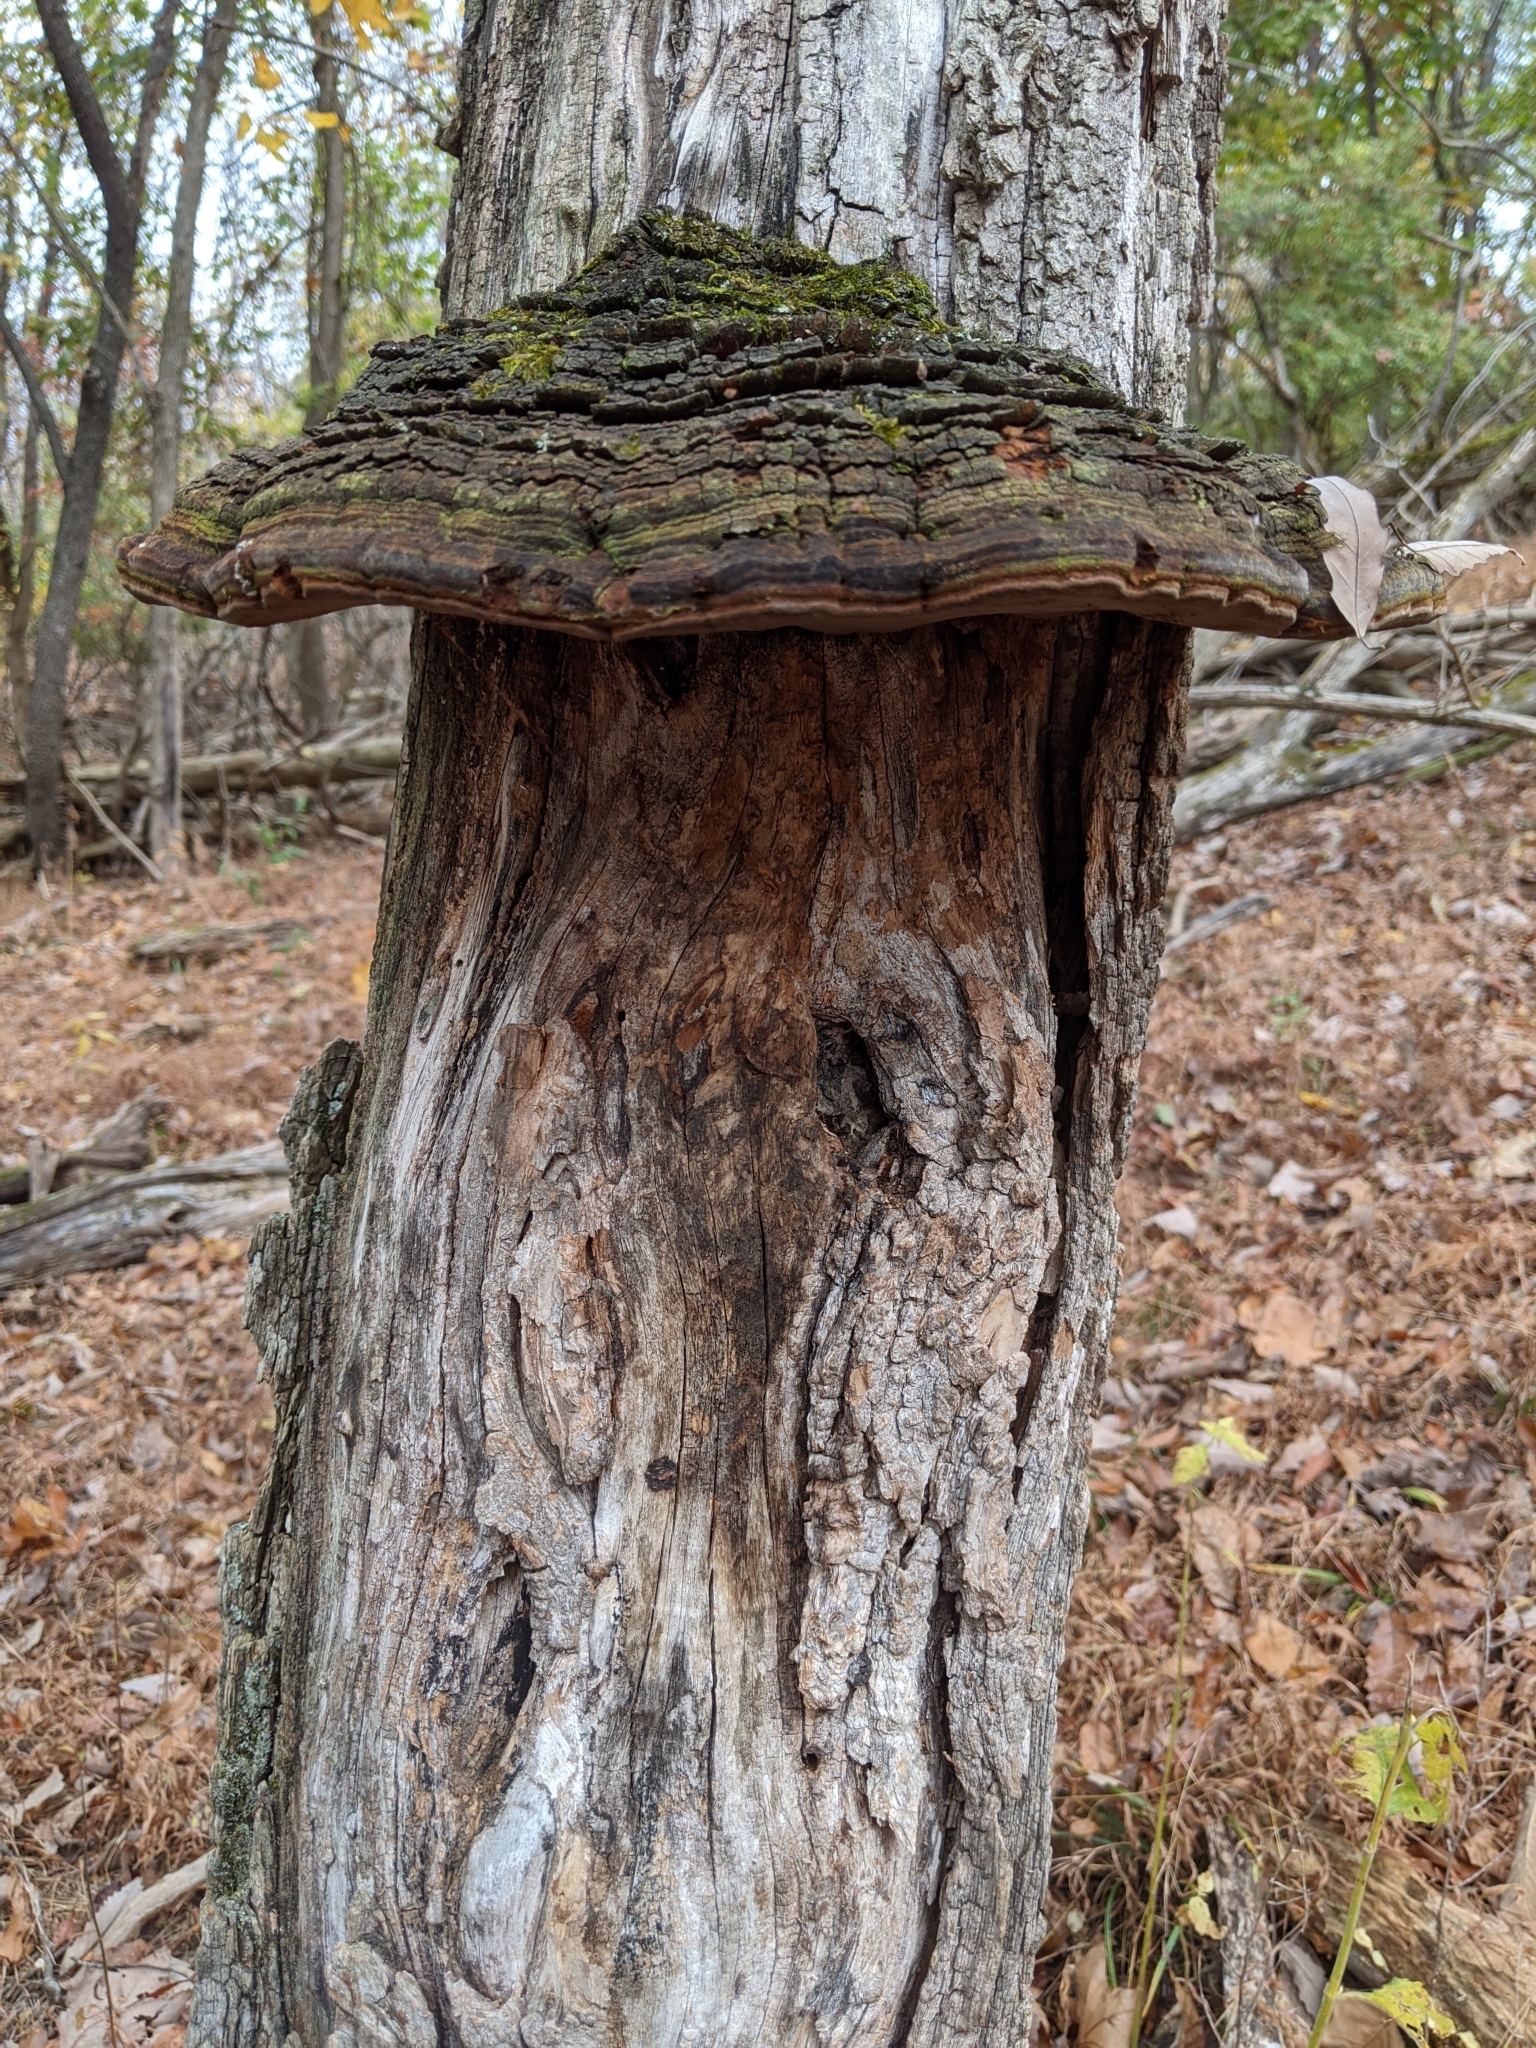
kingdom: Fungi
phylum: Basidiomycota
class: Agaricomycetes
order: Hymenochaetales
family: Hymenochaetaceae
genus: Phellinus
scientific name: Phellinus robiniae
